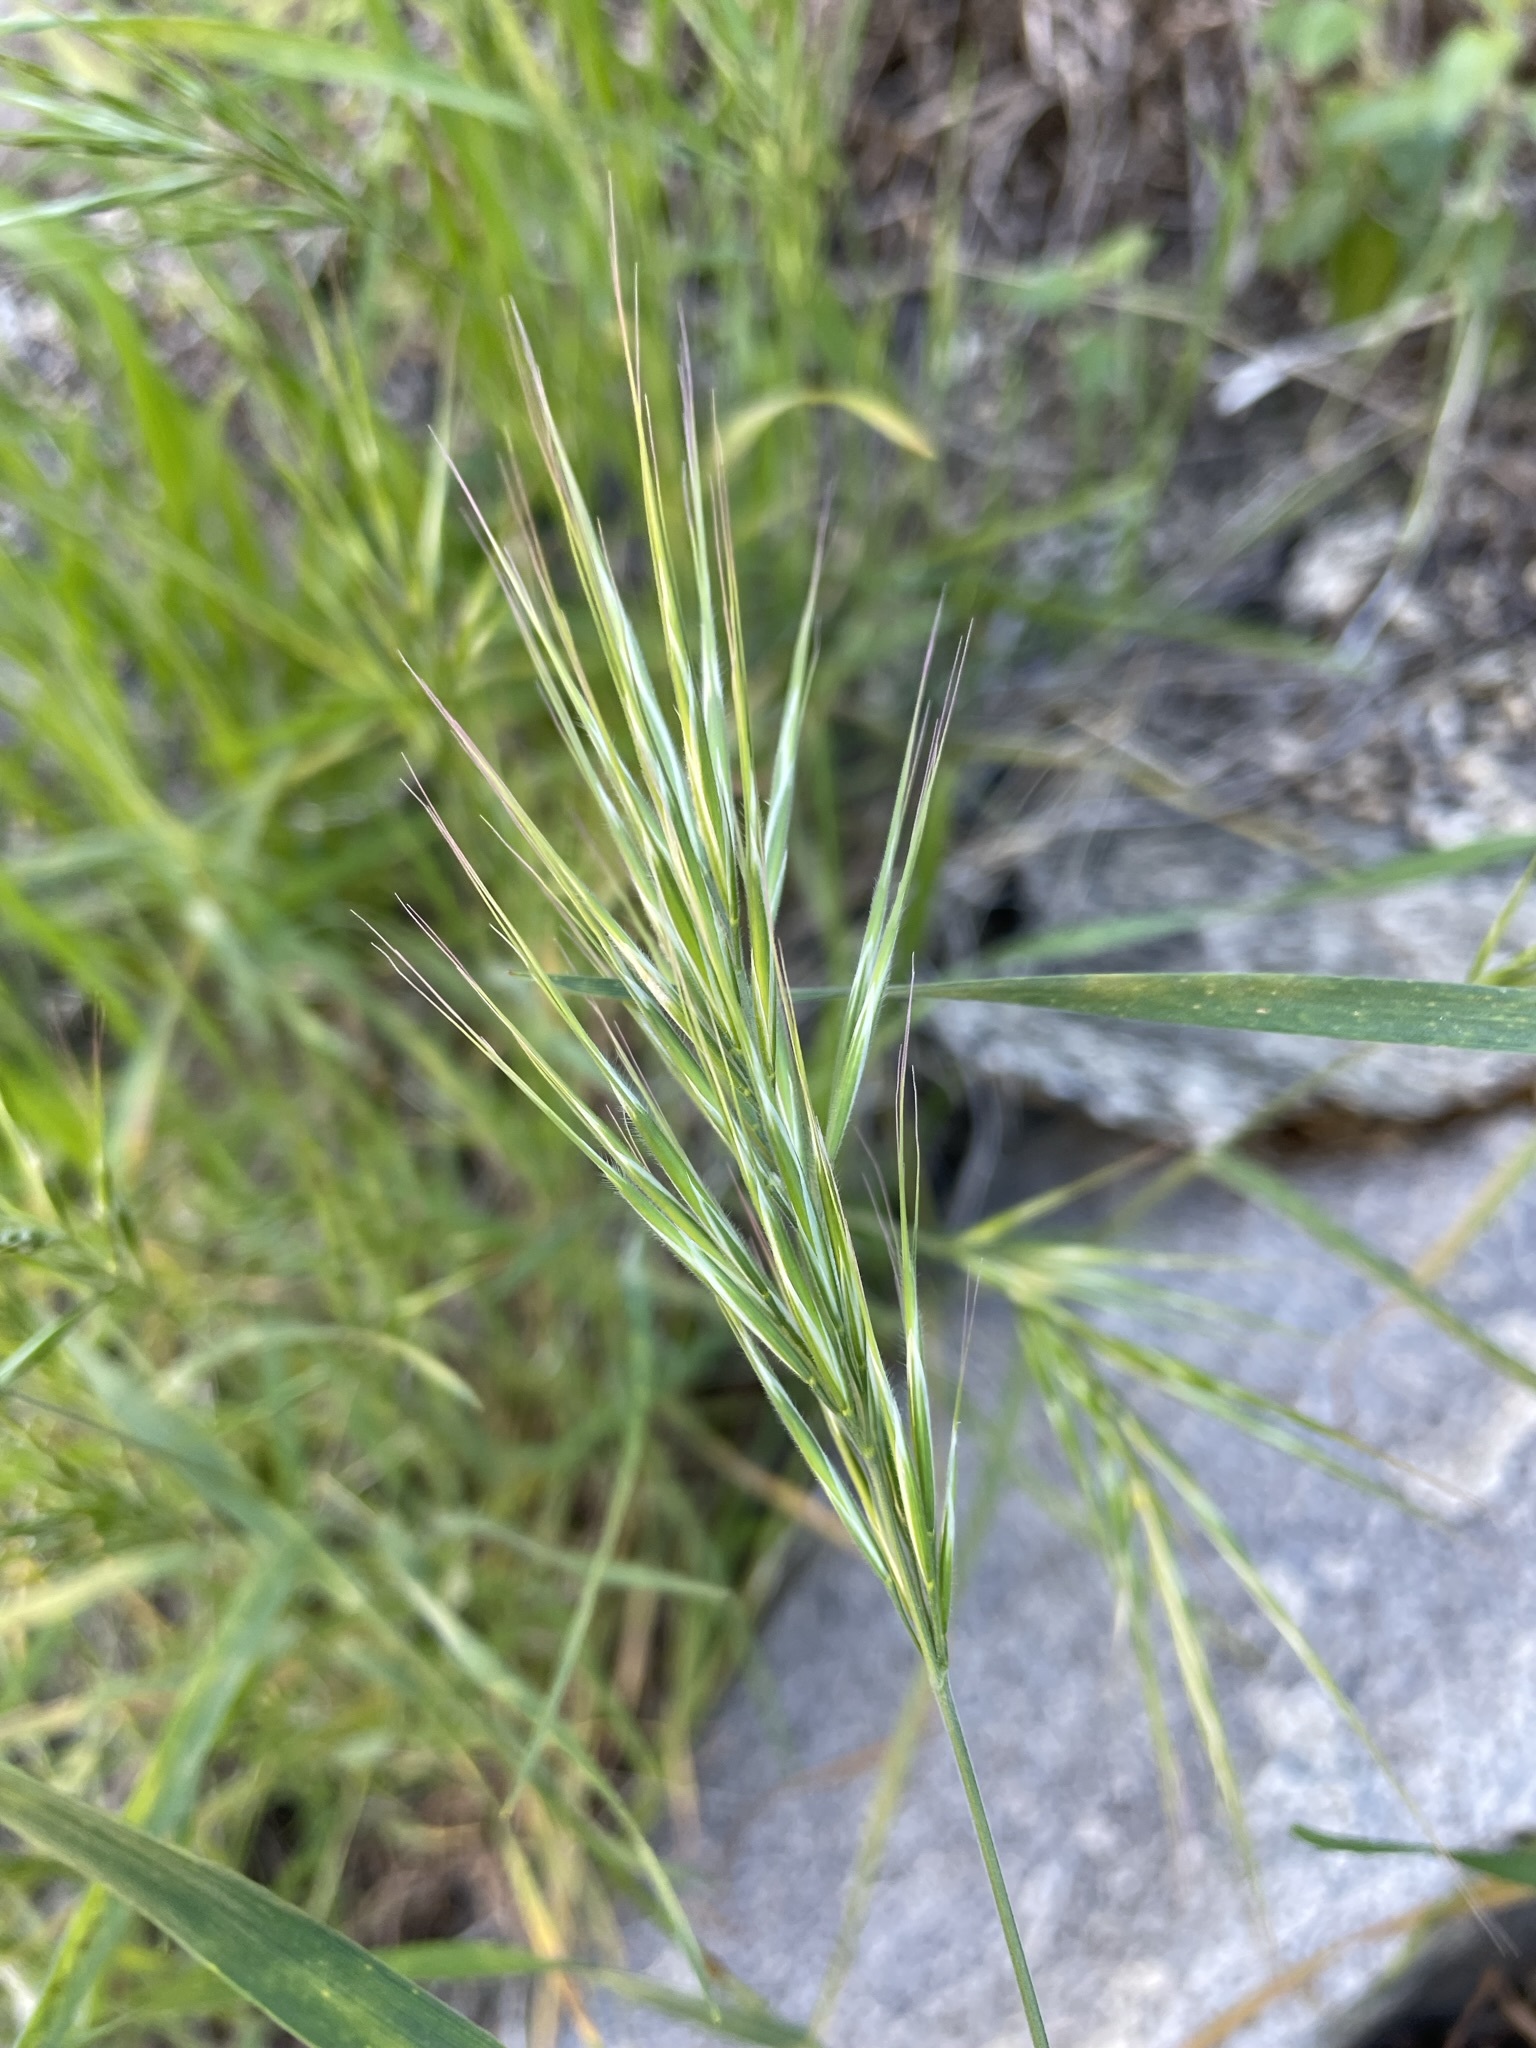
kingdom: Plantae
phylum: Tracheophyta
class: Liliopsida
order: Poales
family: Poaceae
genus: Bromus
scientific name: Bromus rubens
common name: Red brome
